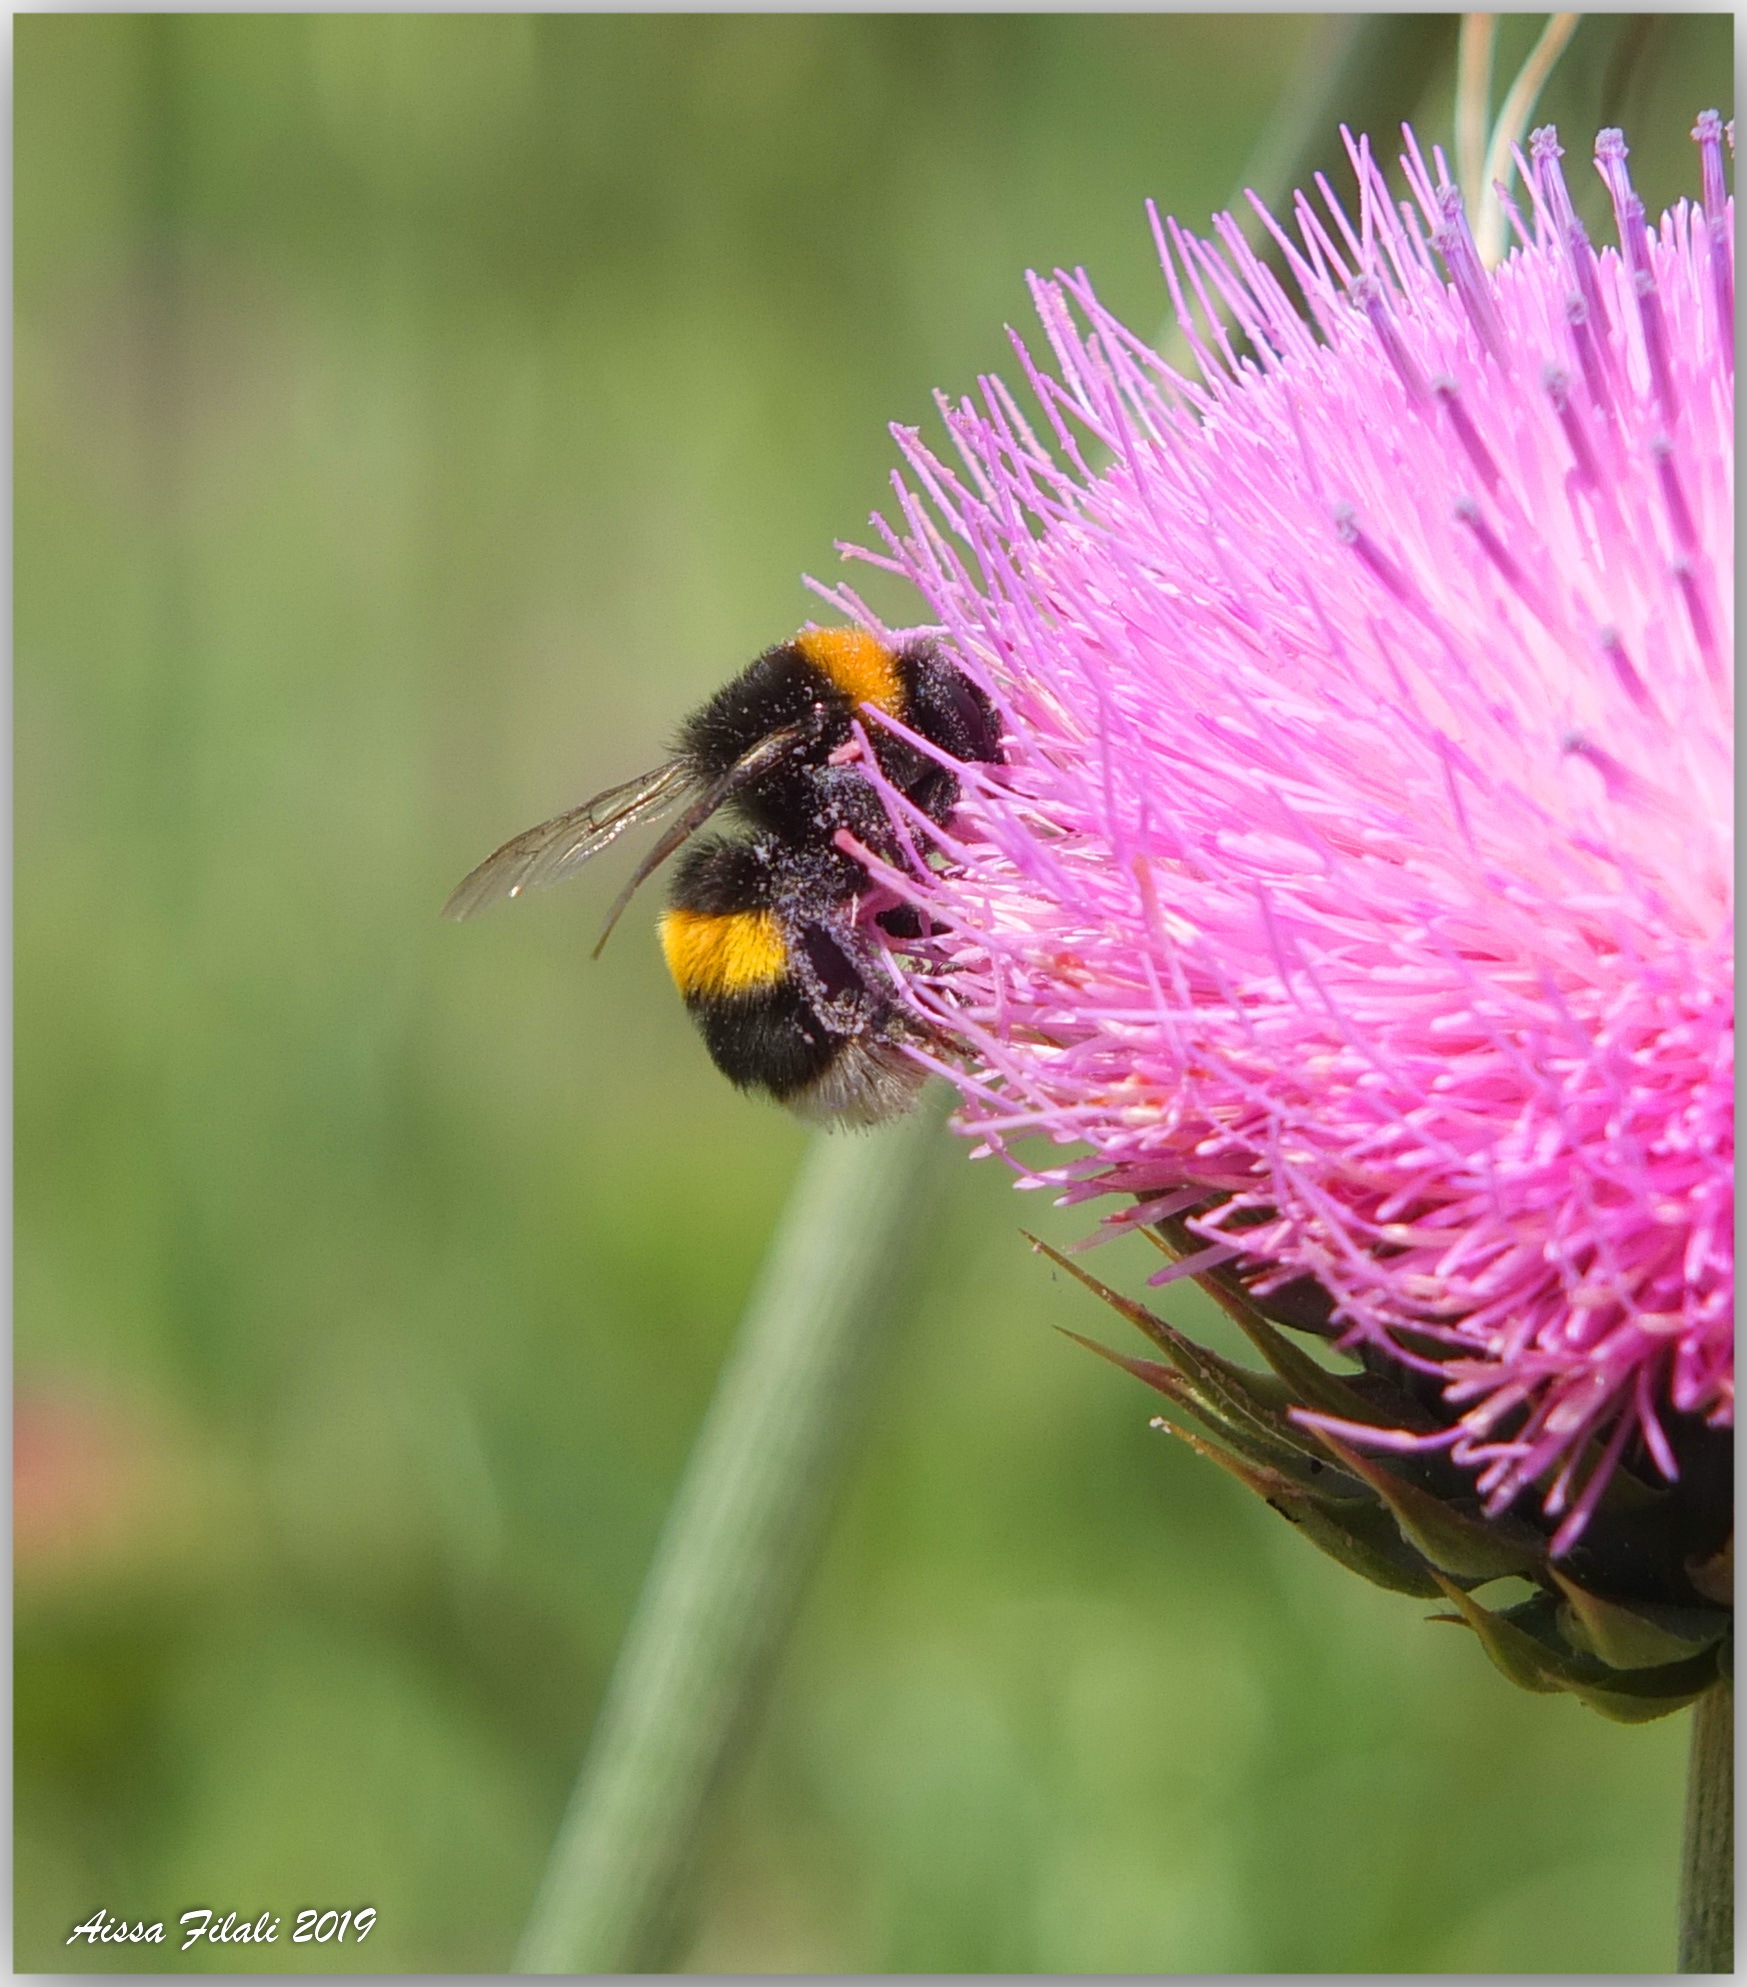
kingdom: Animalia
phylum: Arthropoda
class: Insecta
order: Hymenoptera
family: Apidae
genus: Bombus
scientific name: Bombus terrestris
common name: Buff-tailed bumblebee
